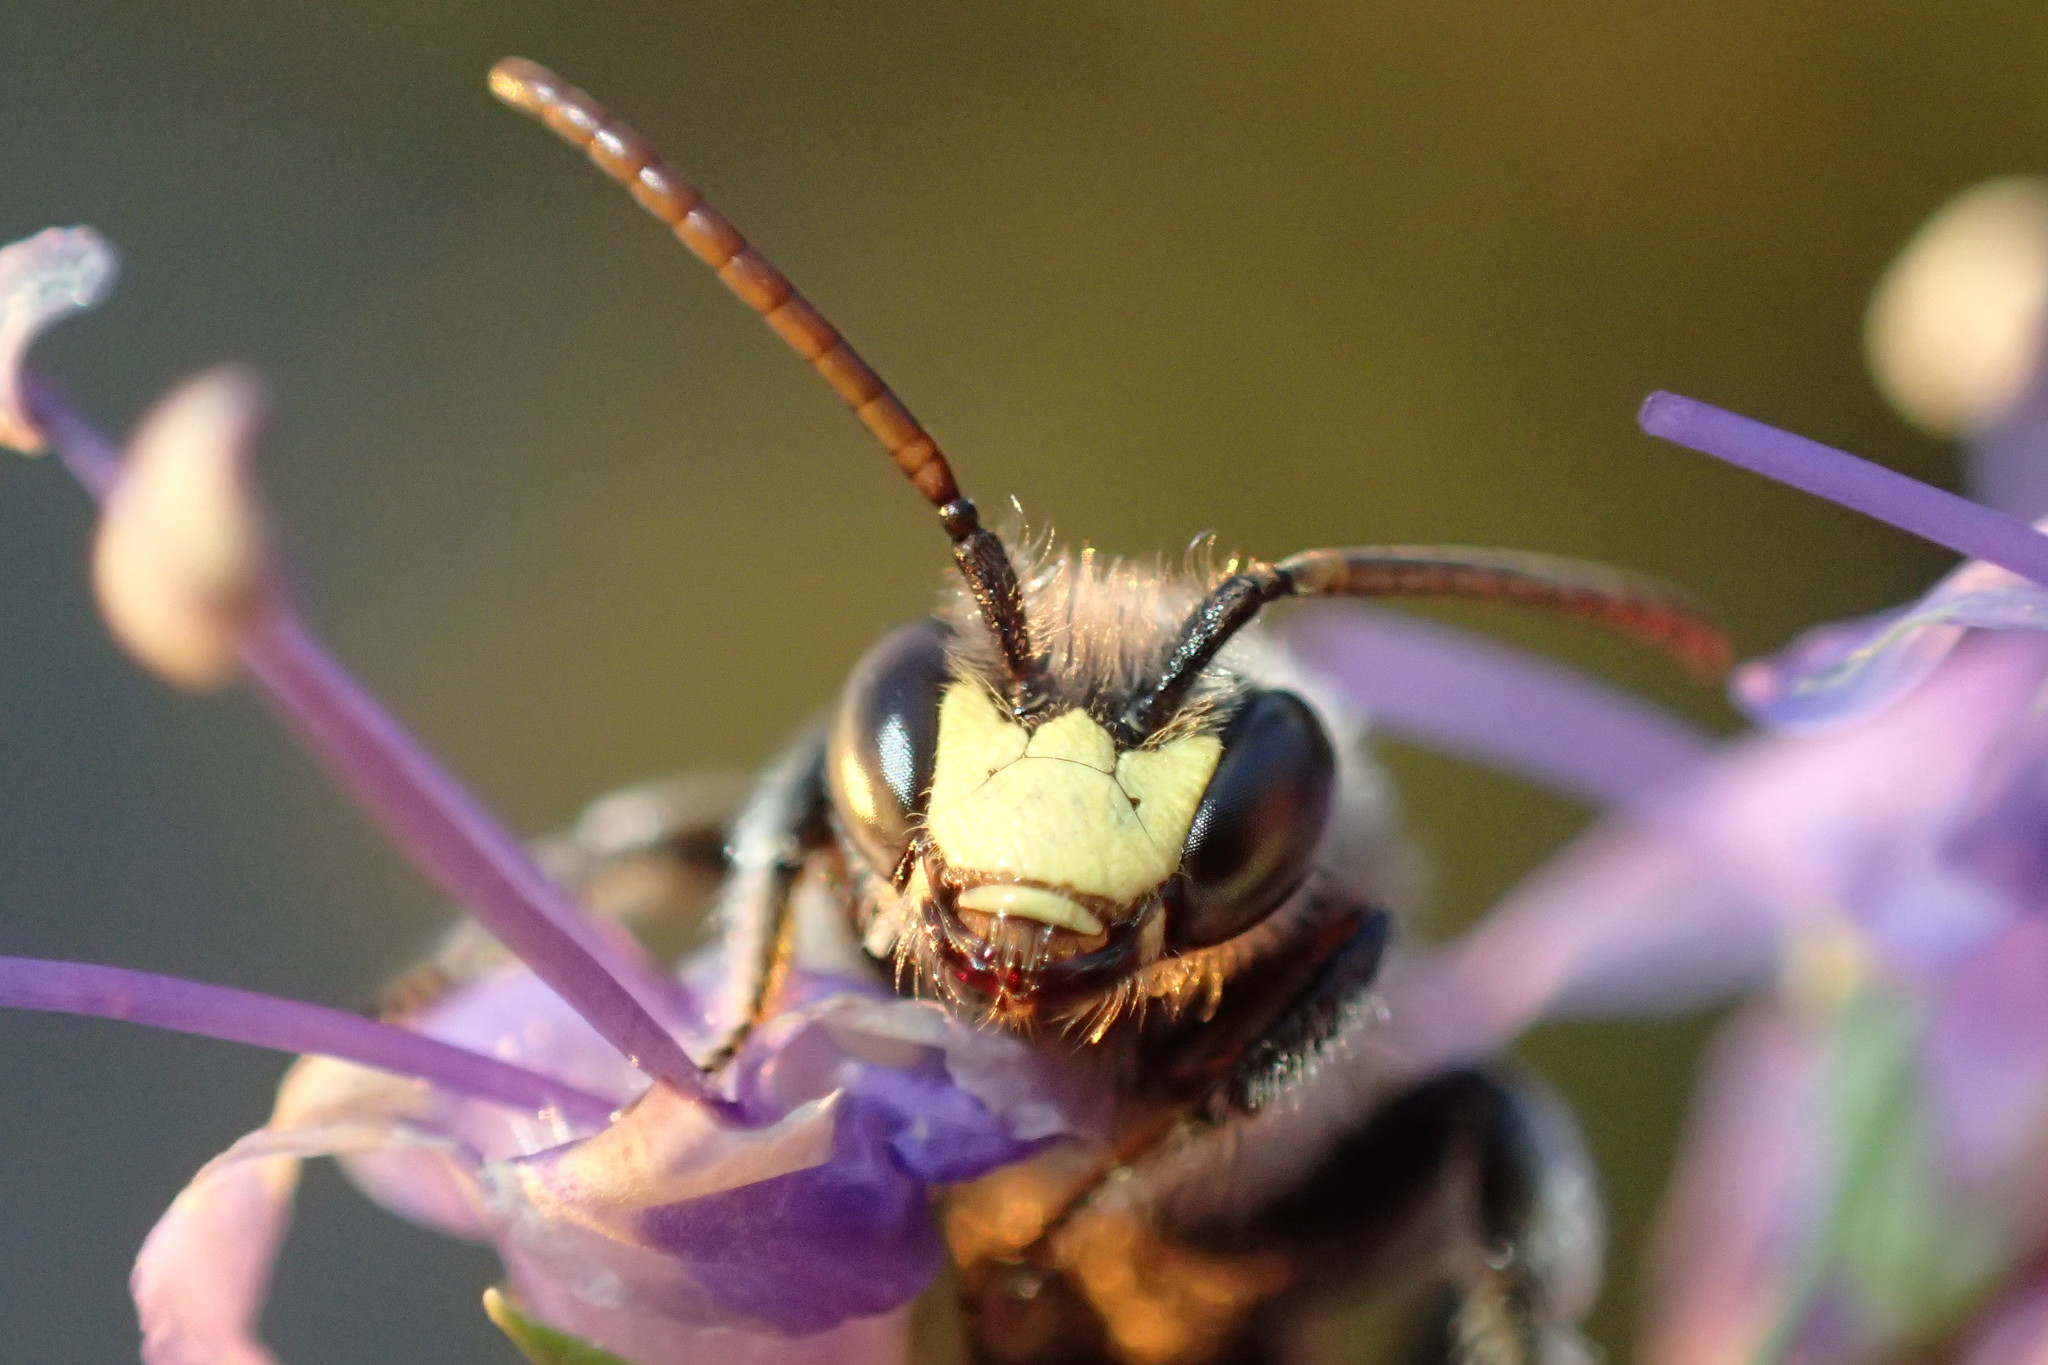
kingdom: Animalia
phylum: Arthropoda
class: Insecta
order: Hymenoptera
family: Melittidae
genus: Macropis
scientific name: Macropis fulvipes
